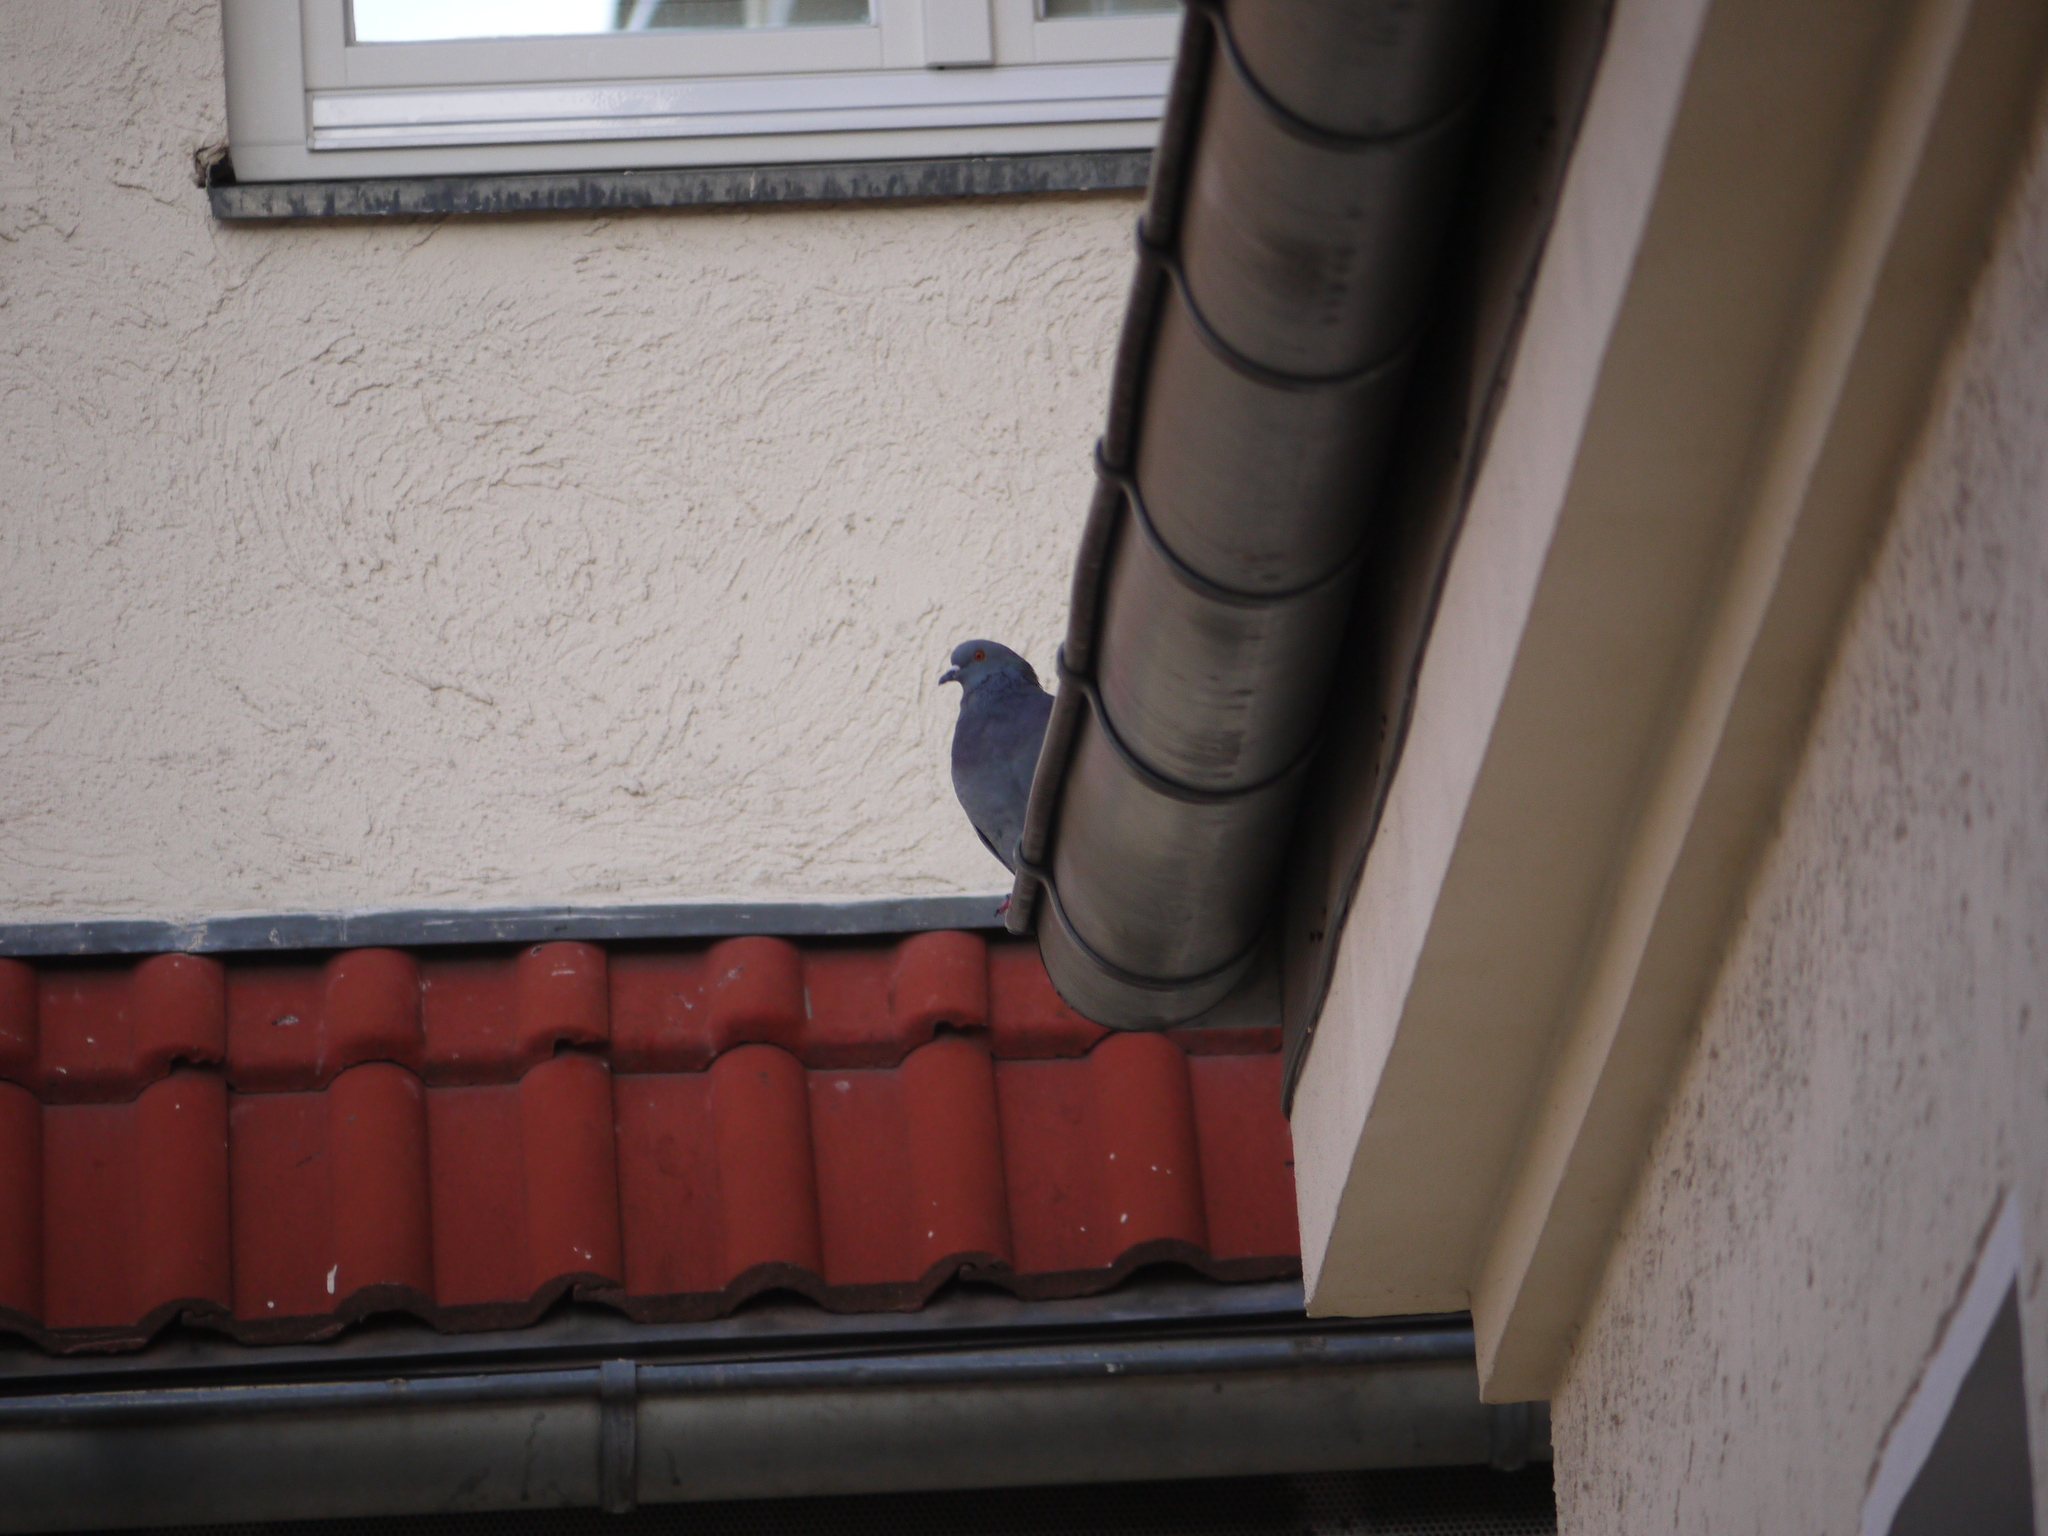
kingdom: Animalia
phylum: Chordata
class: Aves
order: Columbiformes
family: Columbidae
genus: Columba
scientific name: Columba livia
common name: Rock pigeon
